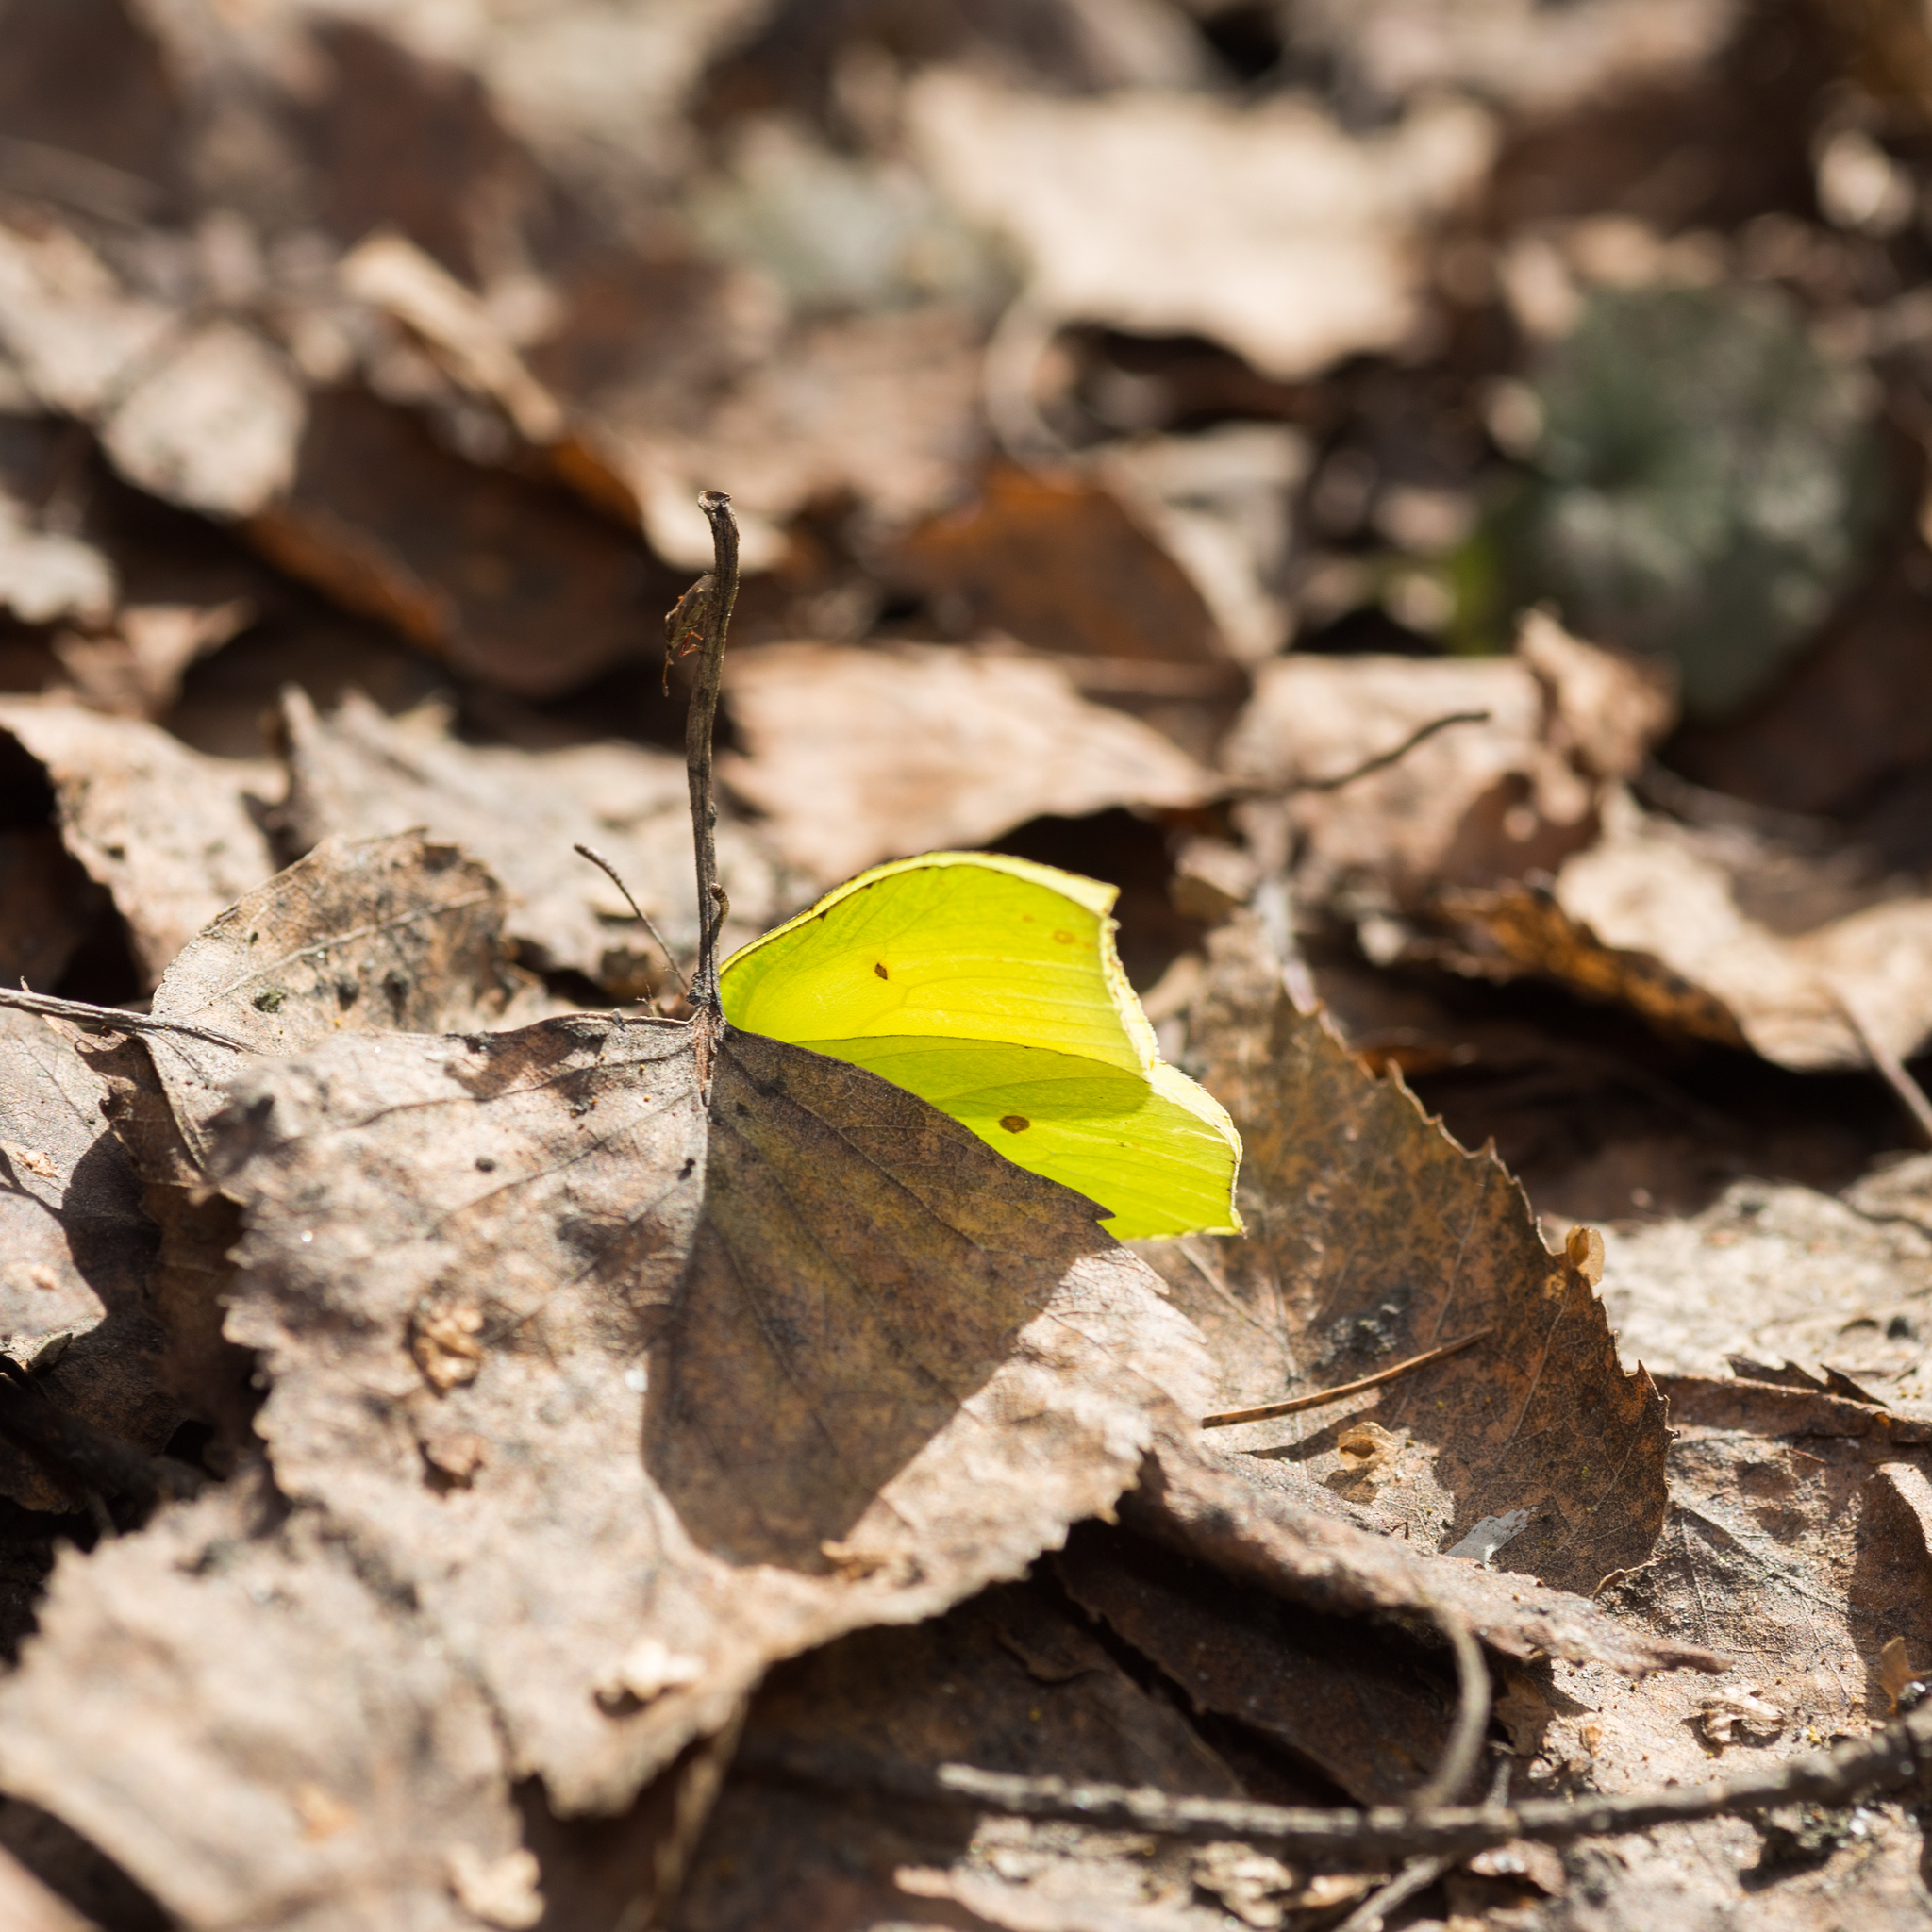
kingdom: Animalia
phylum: Arthropoda
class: Insecta
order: Lepidoptera
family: Pieridae
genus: Gonepteryx
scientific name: Gonepteryx rhamni
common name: Brimstone
